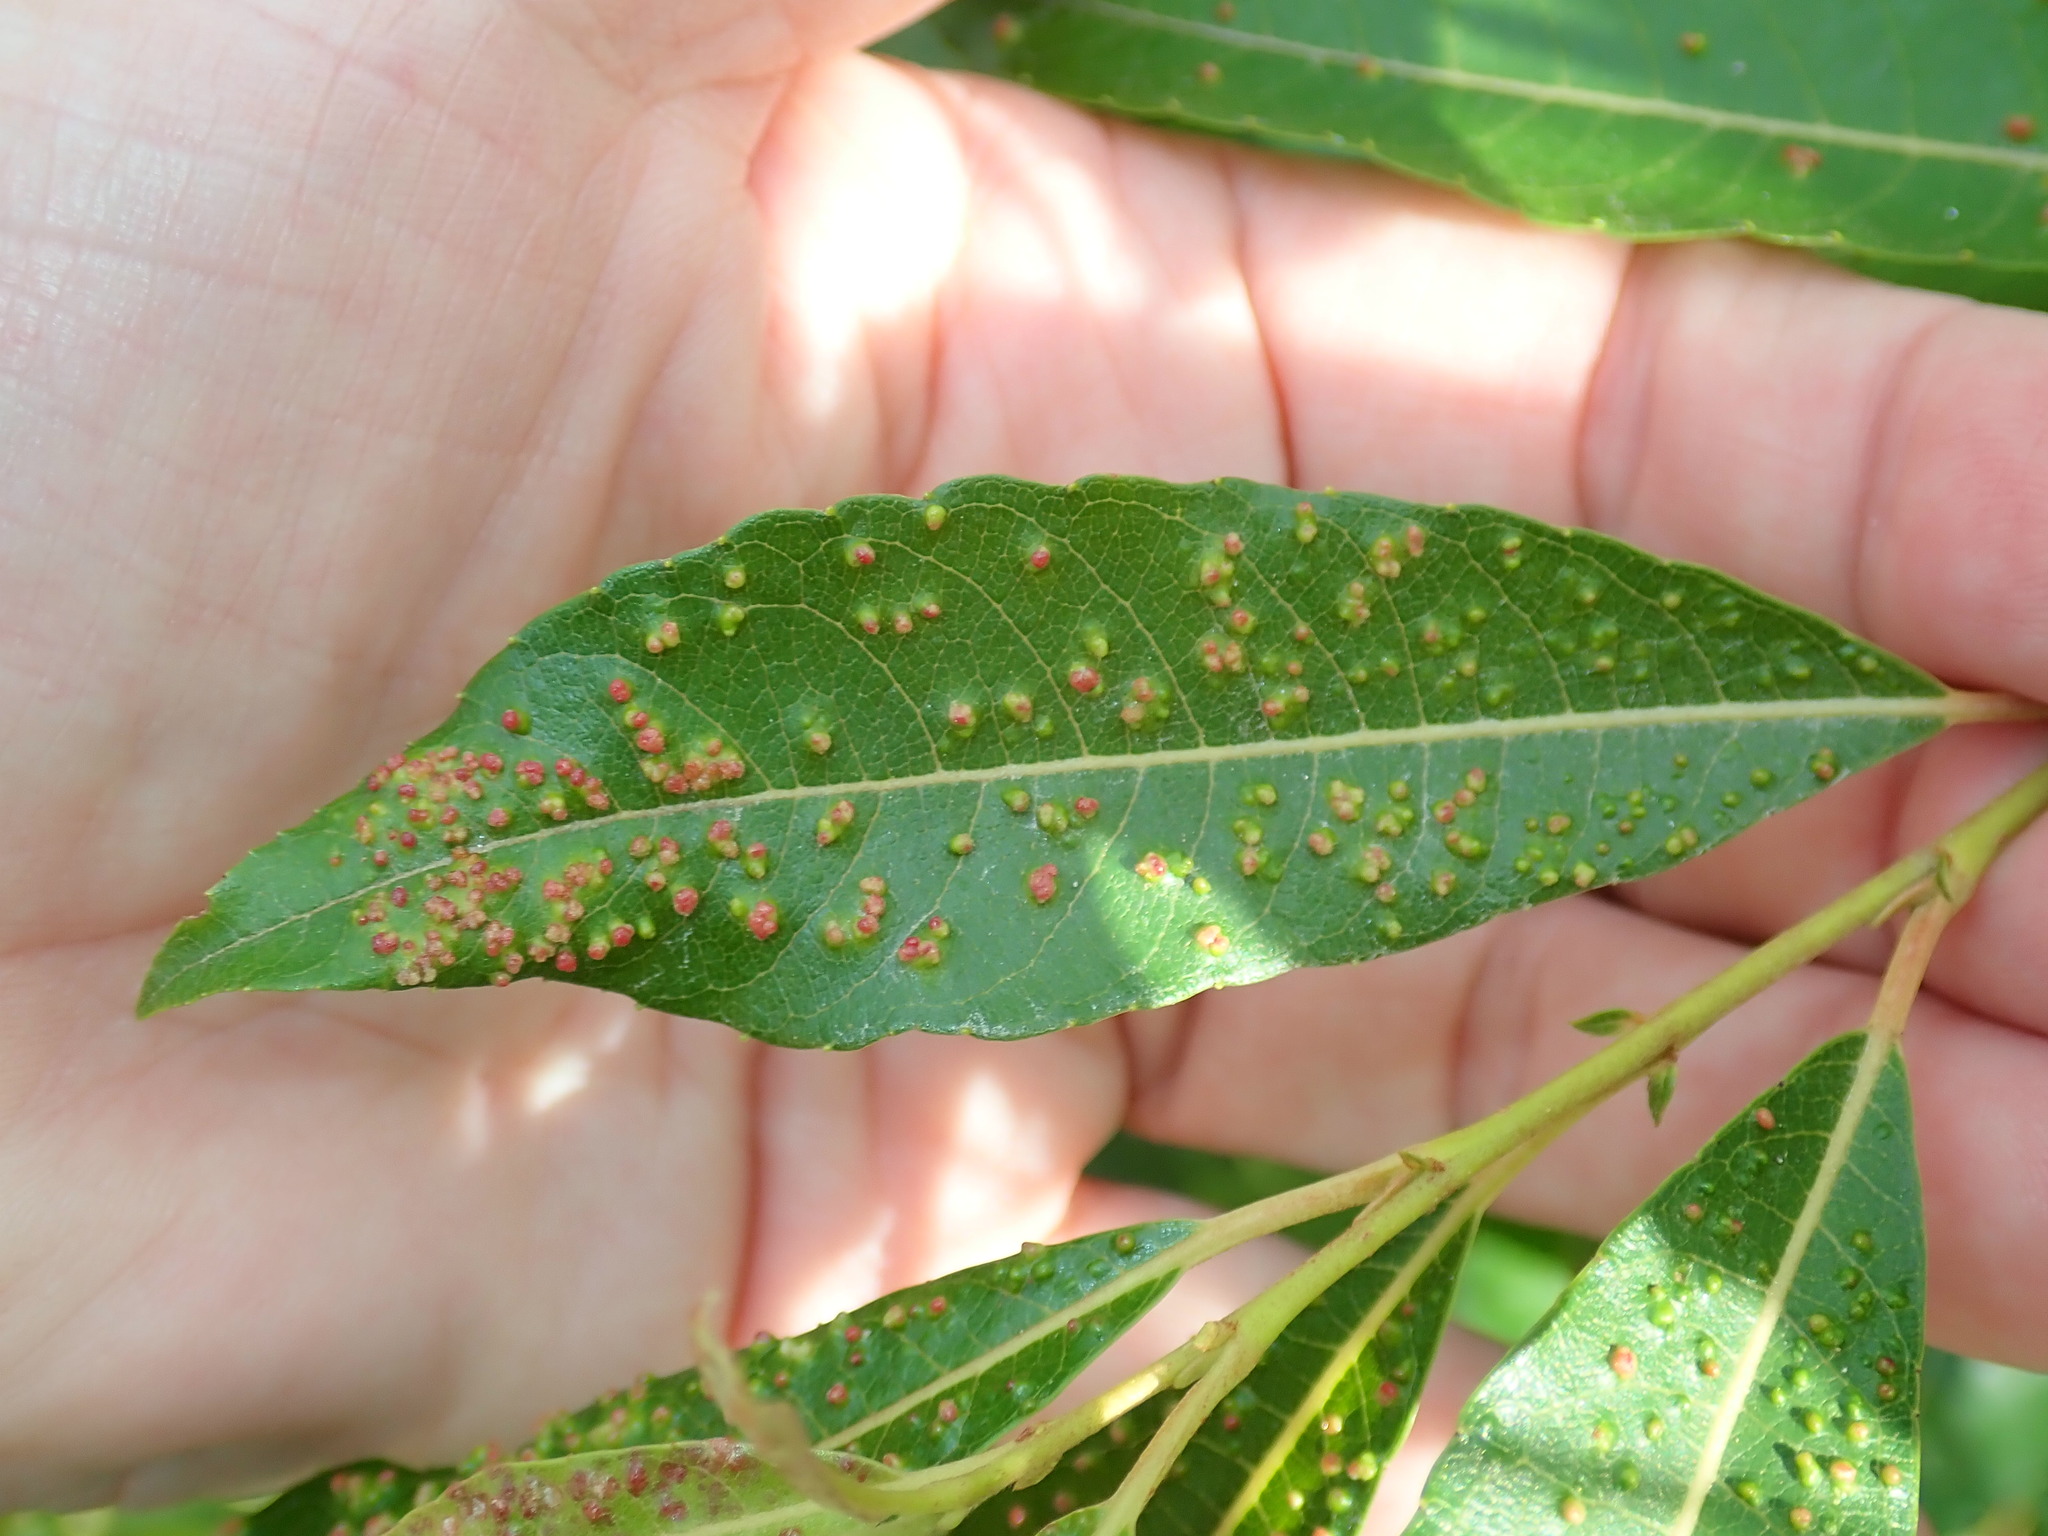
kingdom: Animalia
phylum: Arthropoda
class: Arachnida
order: Trombidiformes
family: Eriophyidae
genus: Aculus
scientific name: Aculus tetanothrix
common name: Willow bead gall mite
